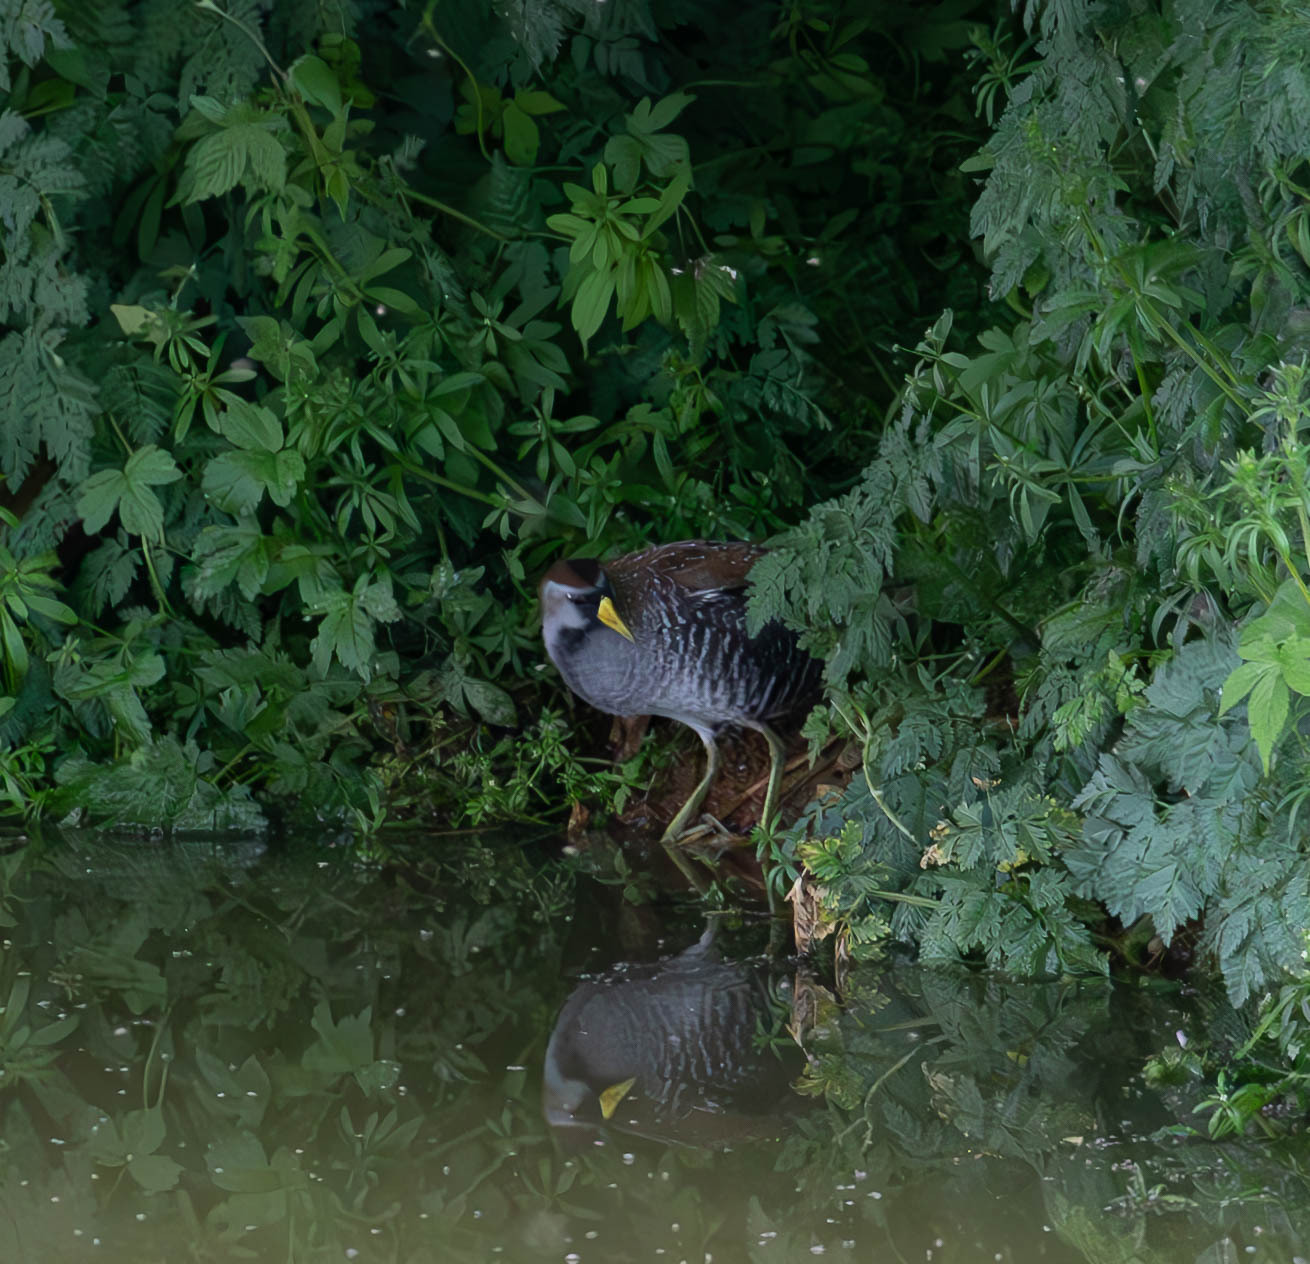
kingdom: Animalia
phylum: Chordata
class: Aves
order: Gruiformes
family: Rallidae
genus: Porzana
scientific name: Porzana carolina
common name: Sora
